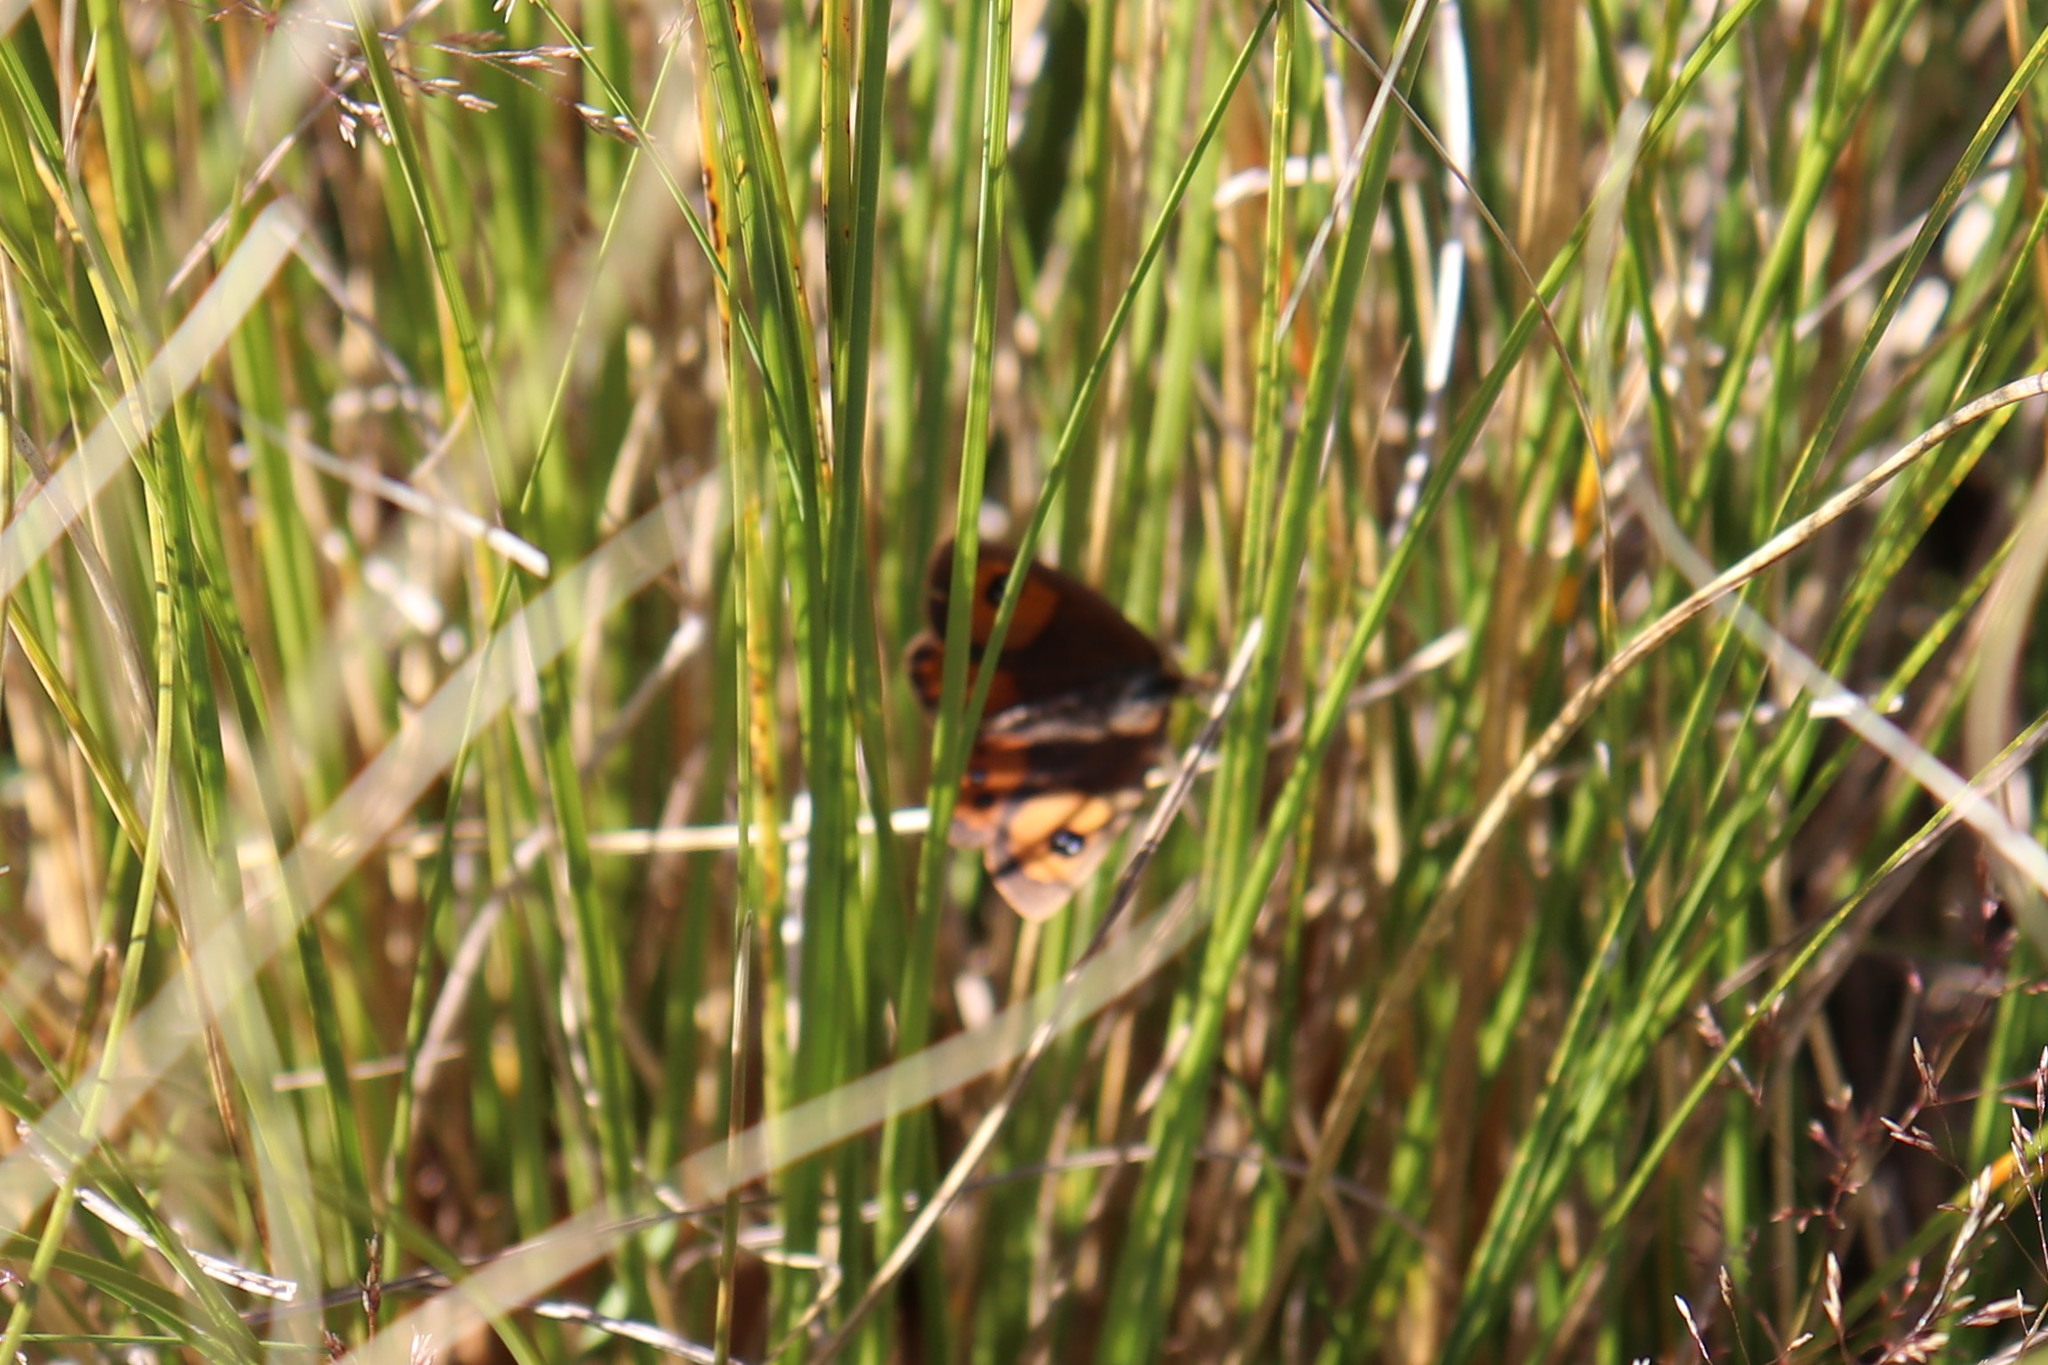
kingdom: Animalia
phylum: Arthropoda
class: Insecta
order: Lepidoptera
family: Nymphalidae
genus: Argyrophenga
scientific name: Argyrophenga antipodum
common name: Common tussock butterfly
